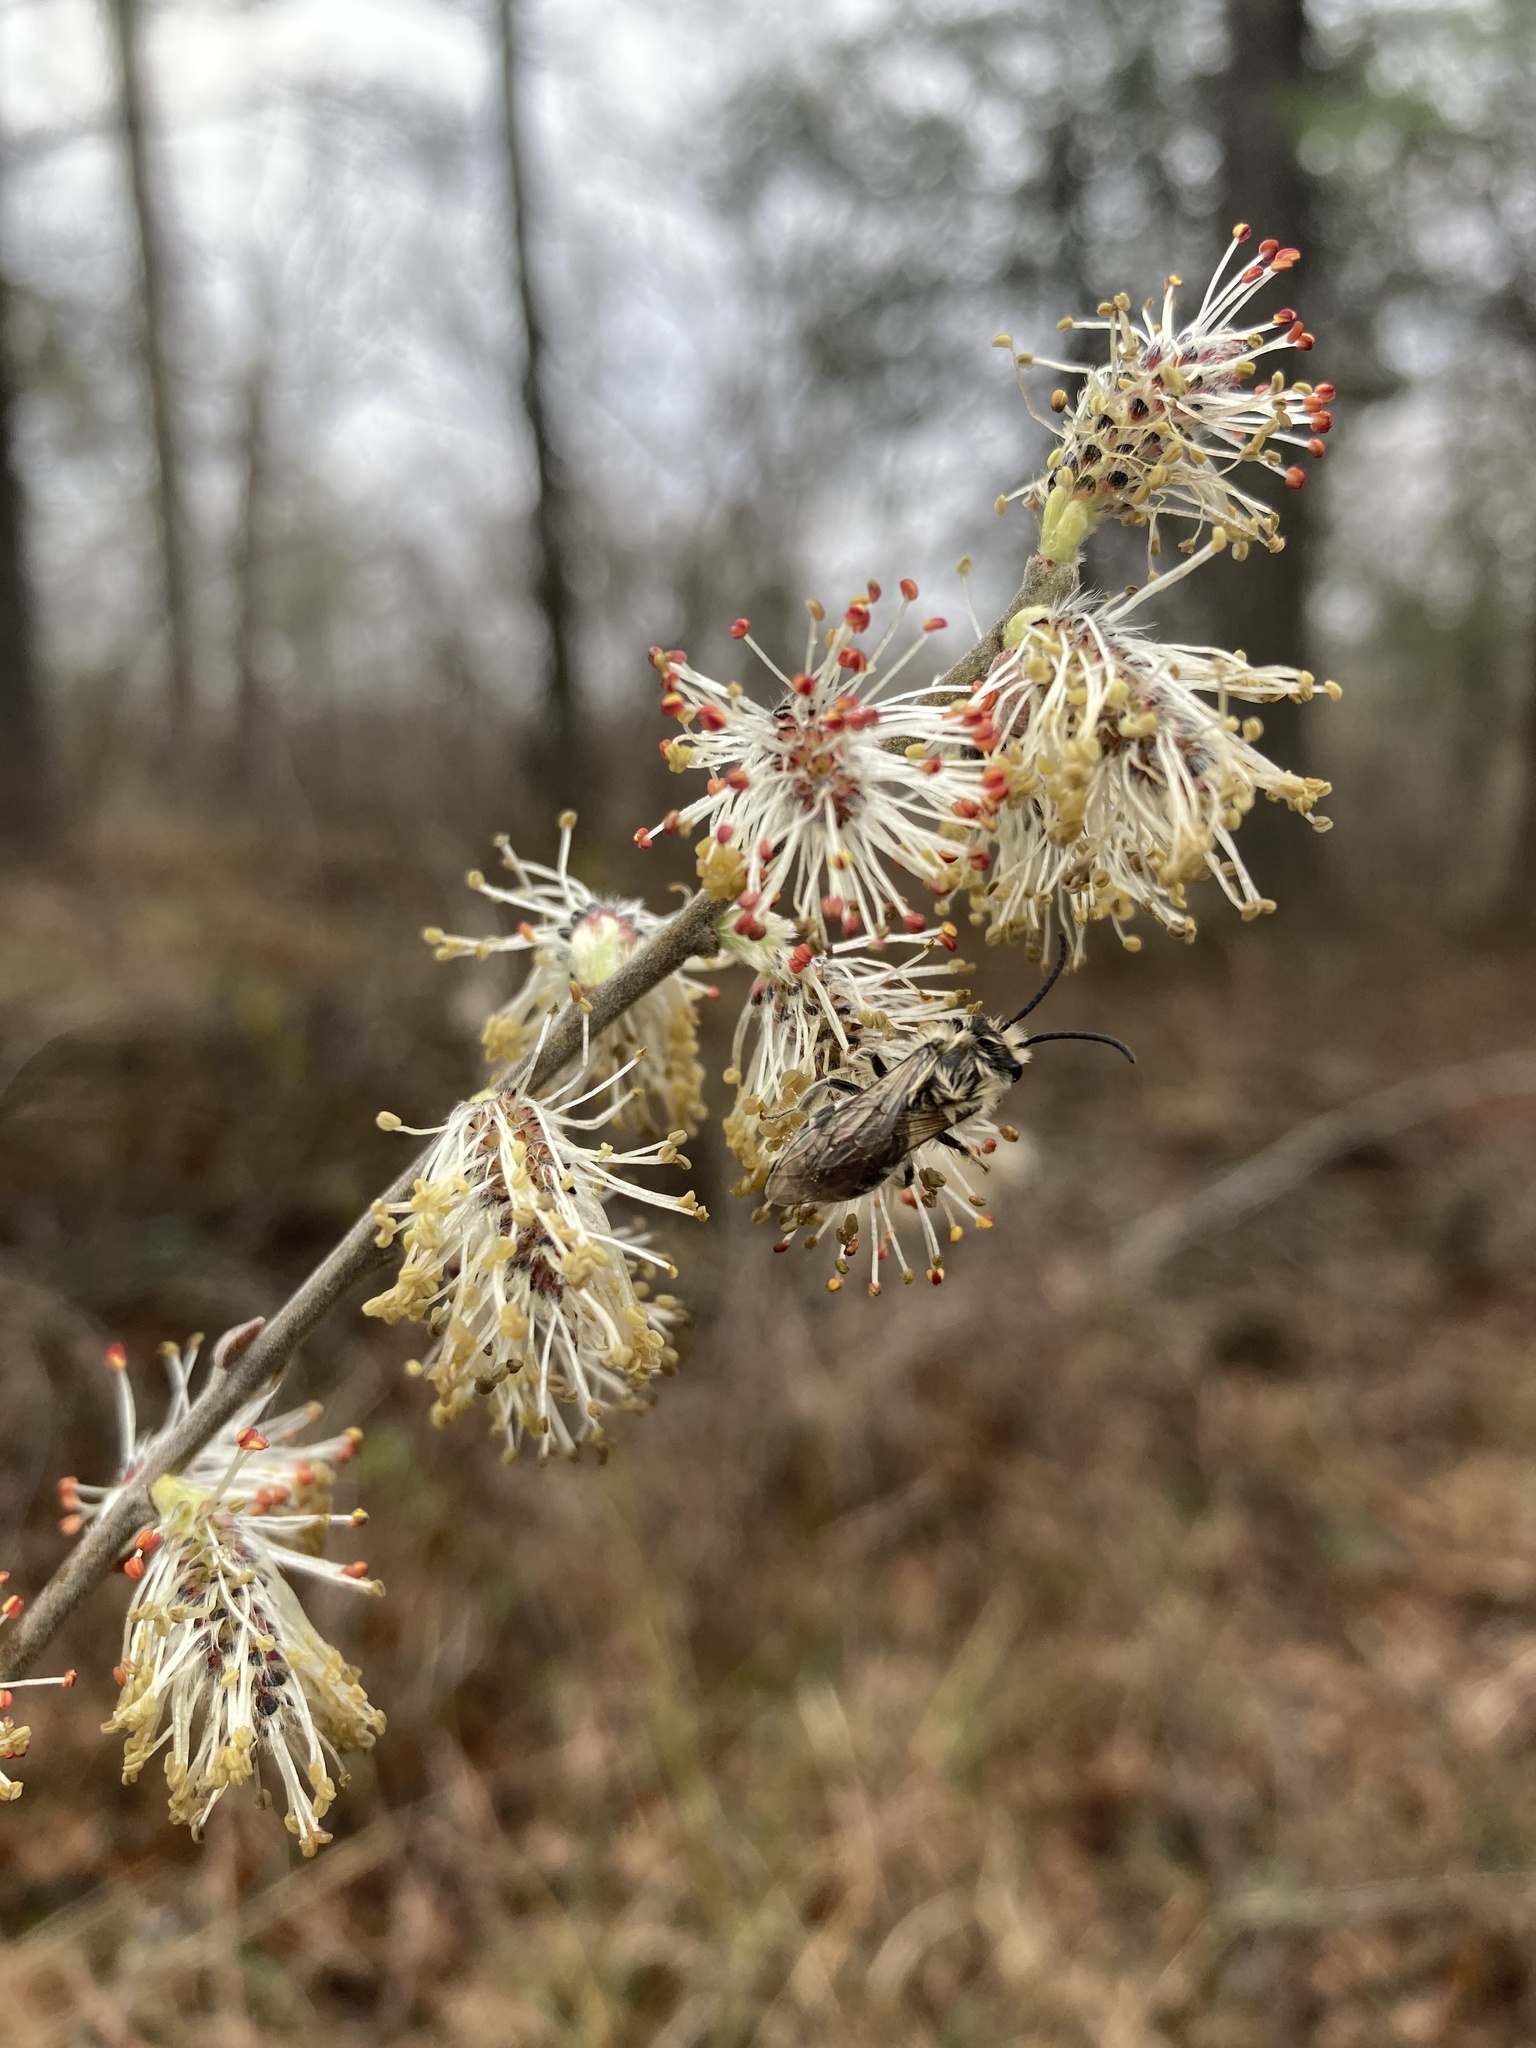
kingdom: Animalia
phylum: Arthropoda
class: Insecta
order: Hymenoptera
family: Colletidae
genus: Colletes
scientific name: Colletes inaequalis
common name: Unequal cellophane bee
